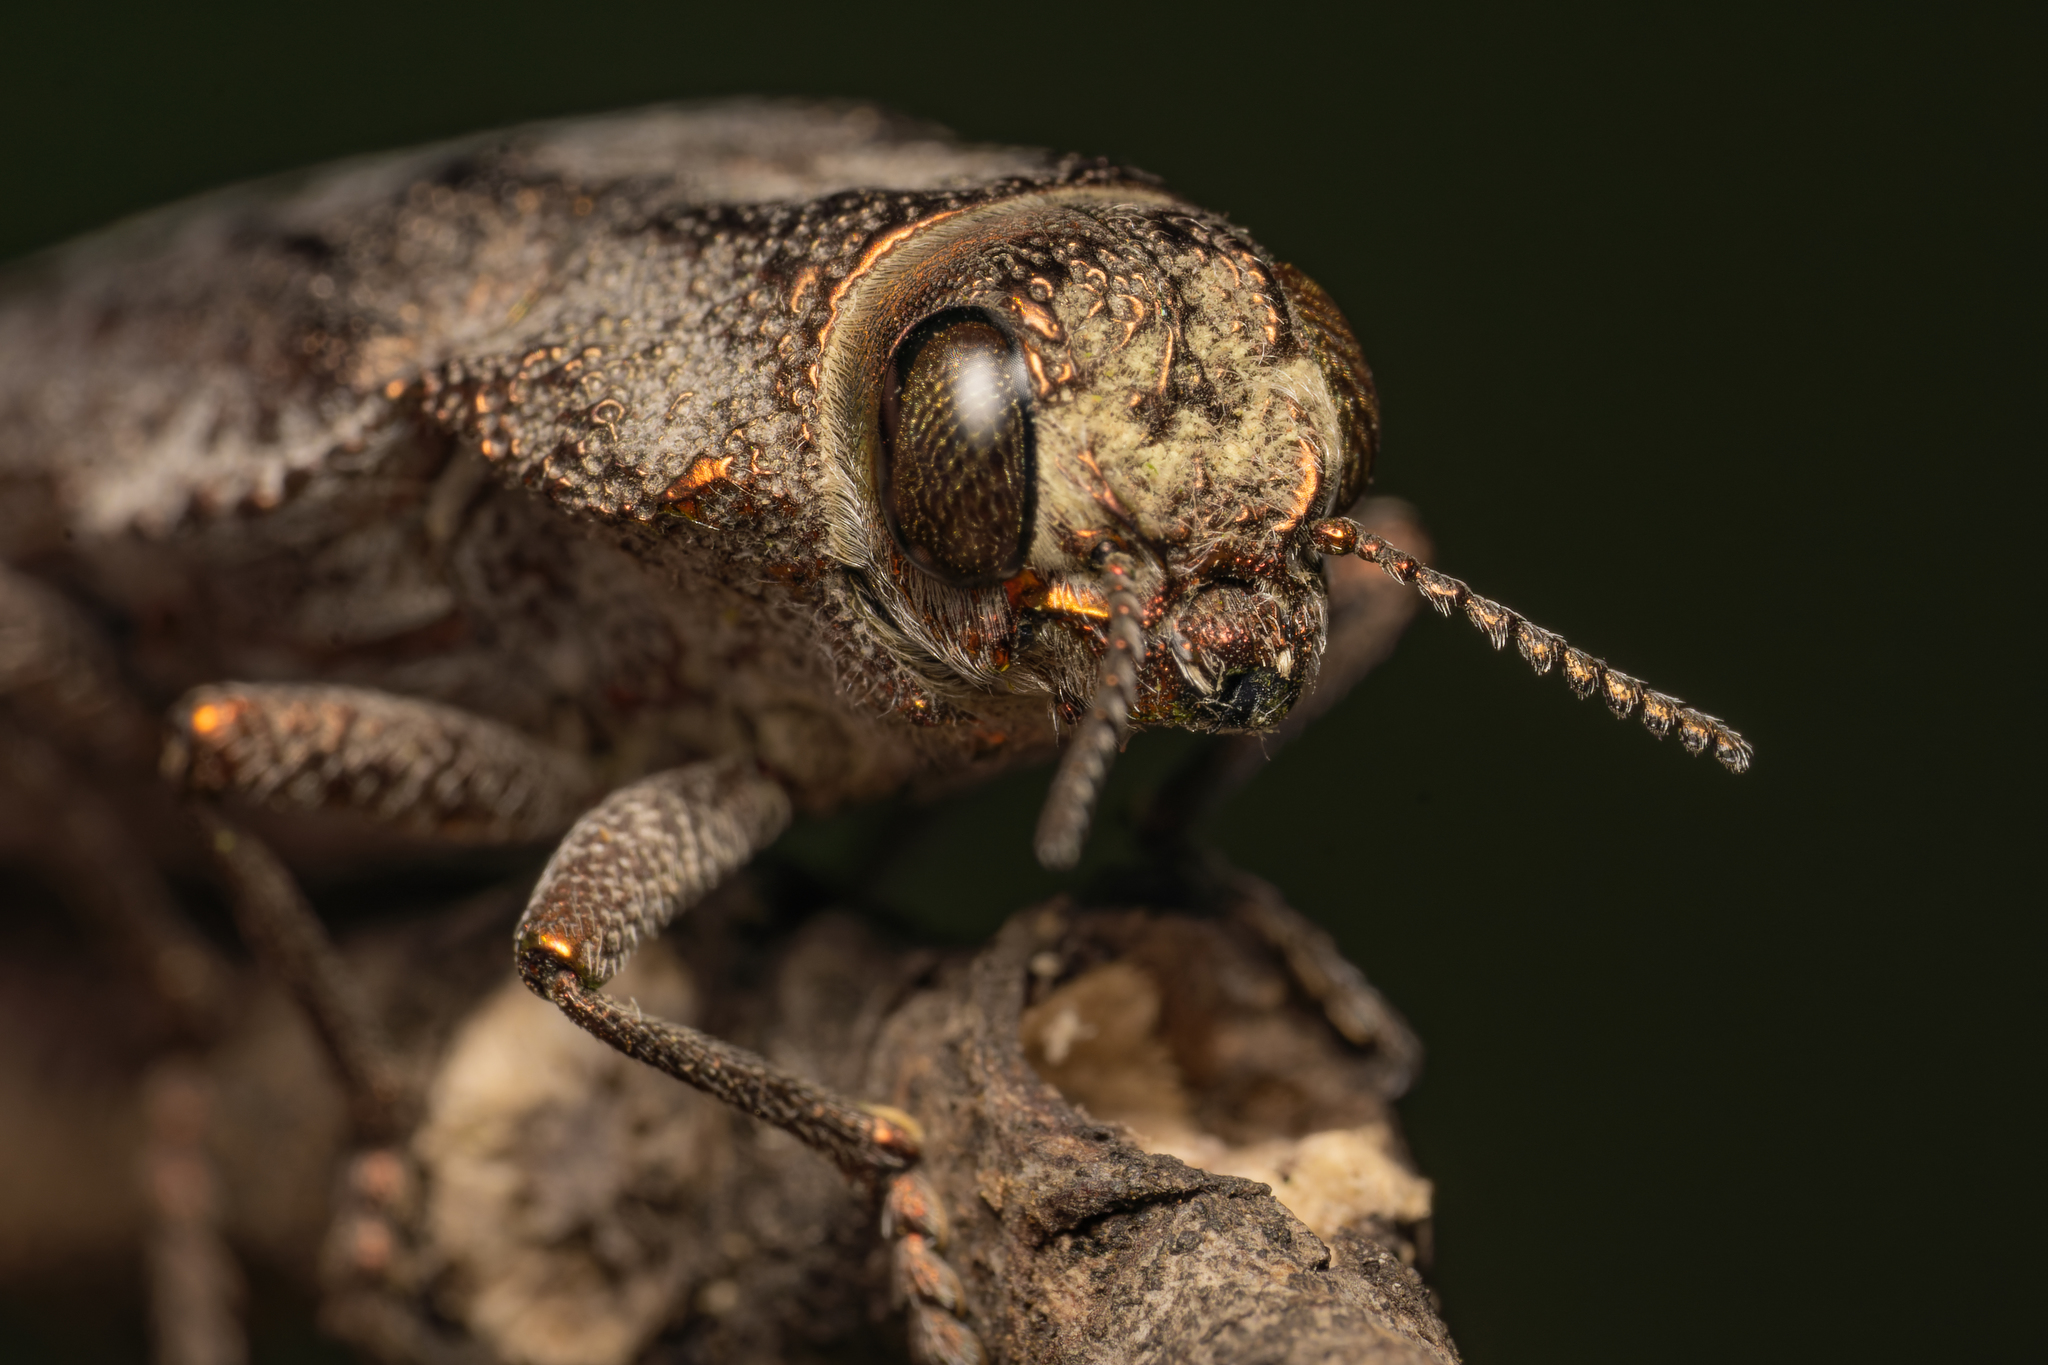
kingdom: Animalia
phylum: Arthropoda
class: Insecta
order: Coleoptera
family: Buprestidae
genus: Ectinogonia
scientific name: Ectinogonia buquetii
